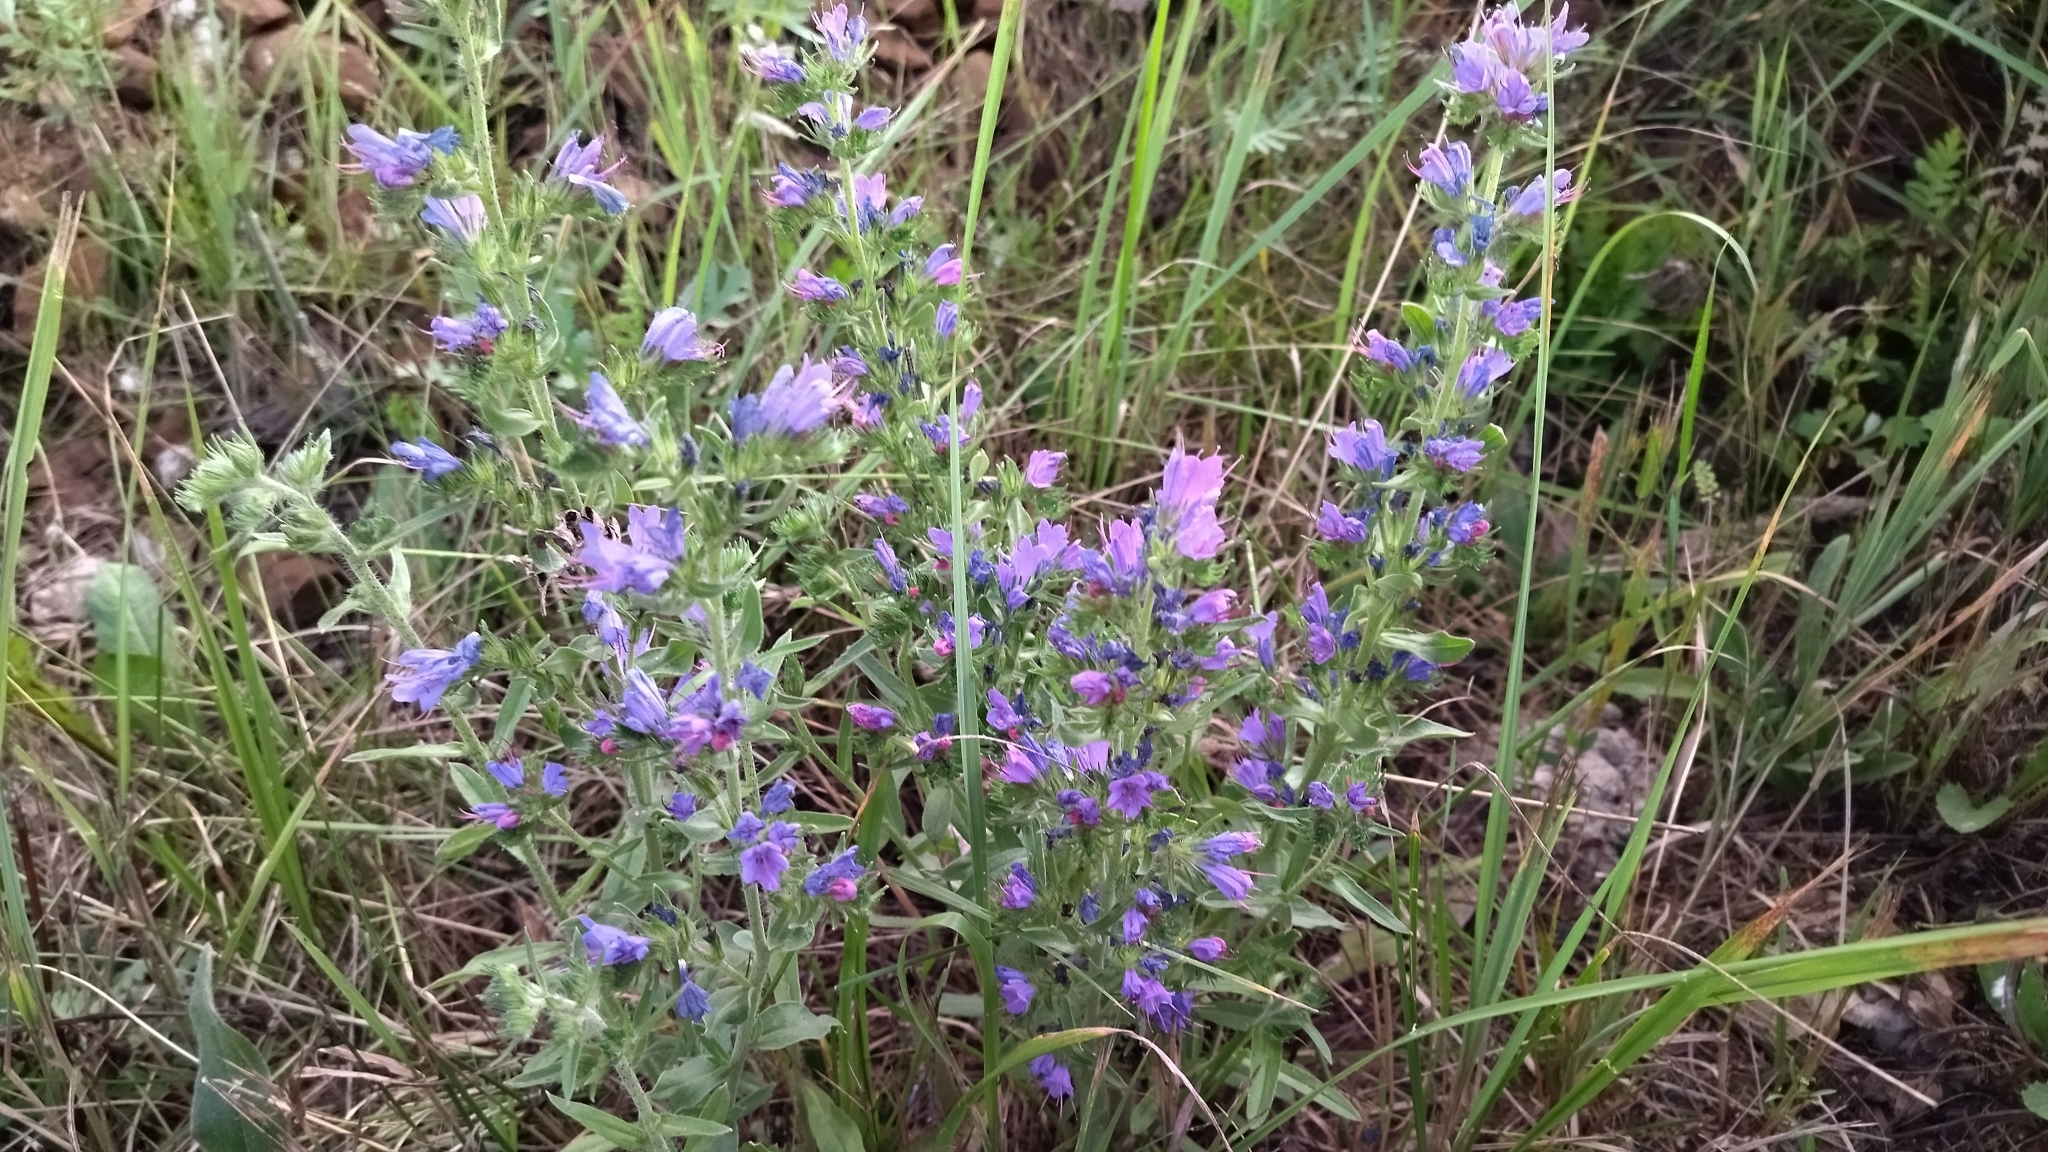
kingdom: Plantae
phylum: Tracheophyta
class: Magnoliopsida
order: Boraginales
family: Boraginaceae
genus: Echium
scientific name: Echium vulgare
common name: Common viper's bugloss
